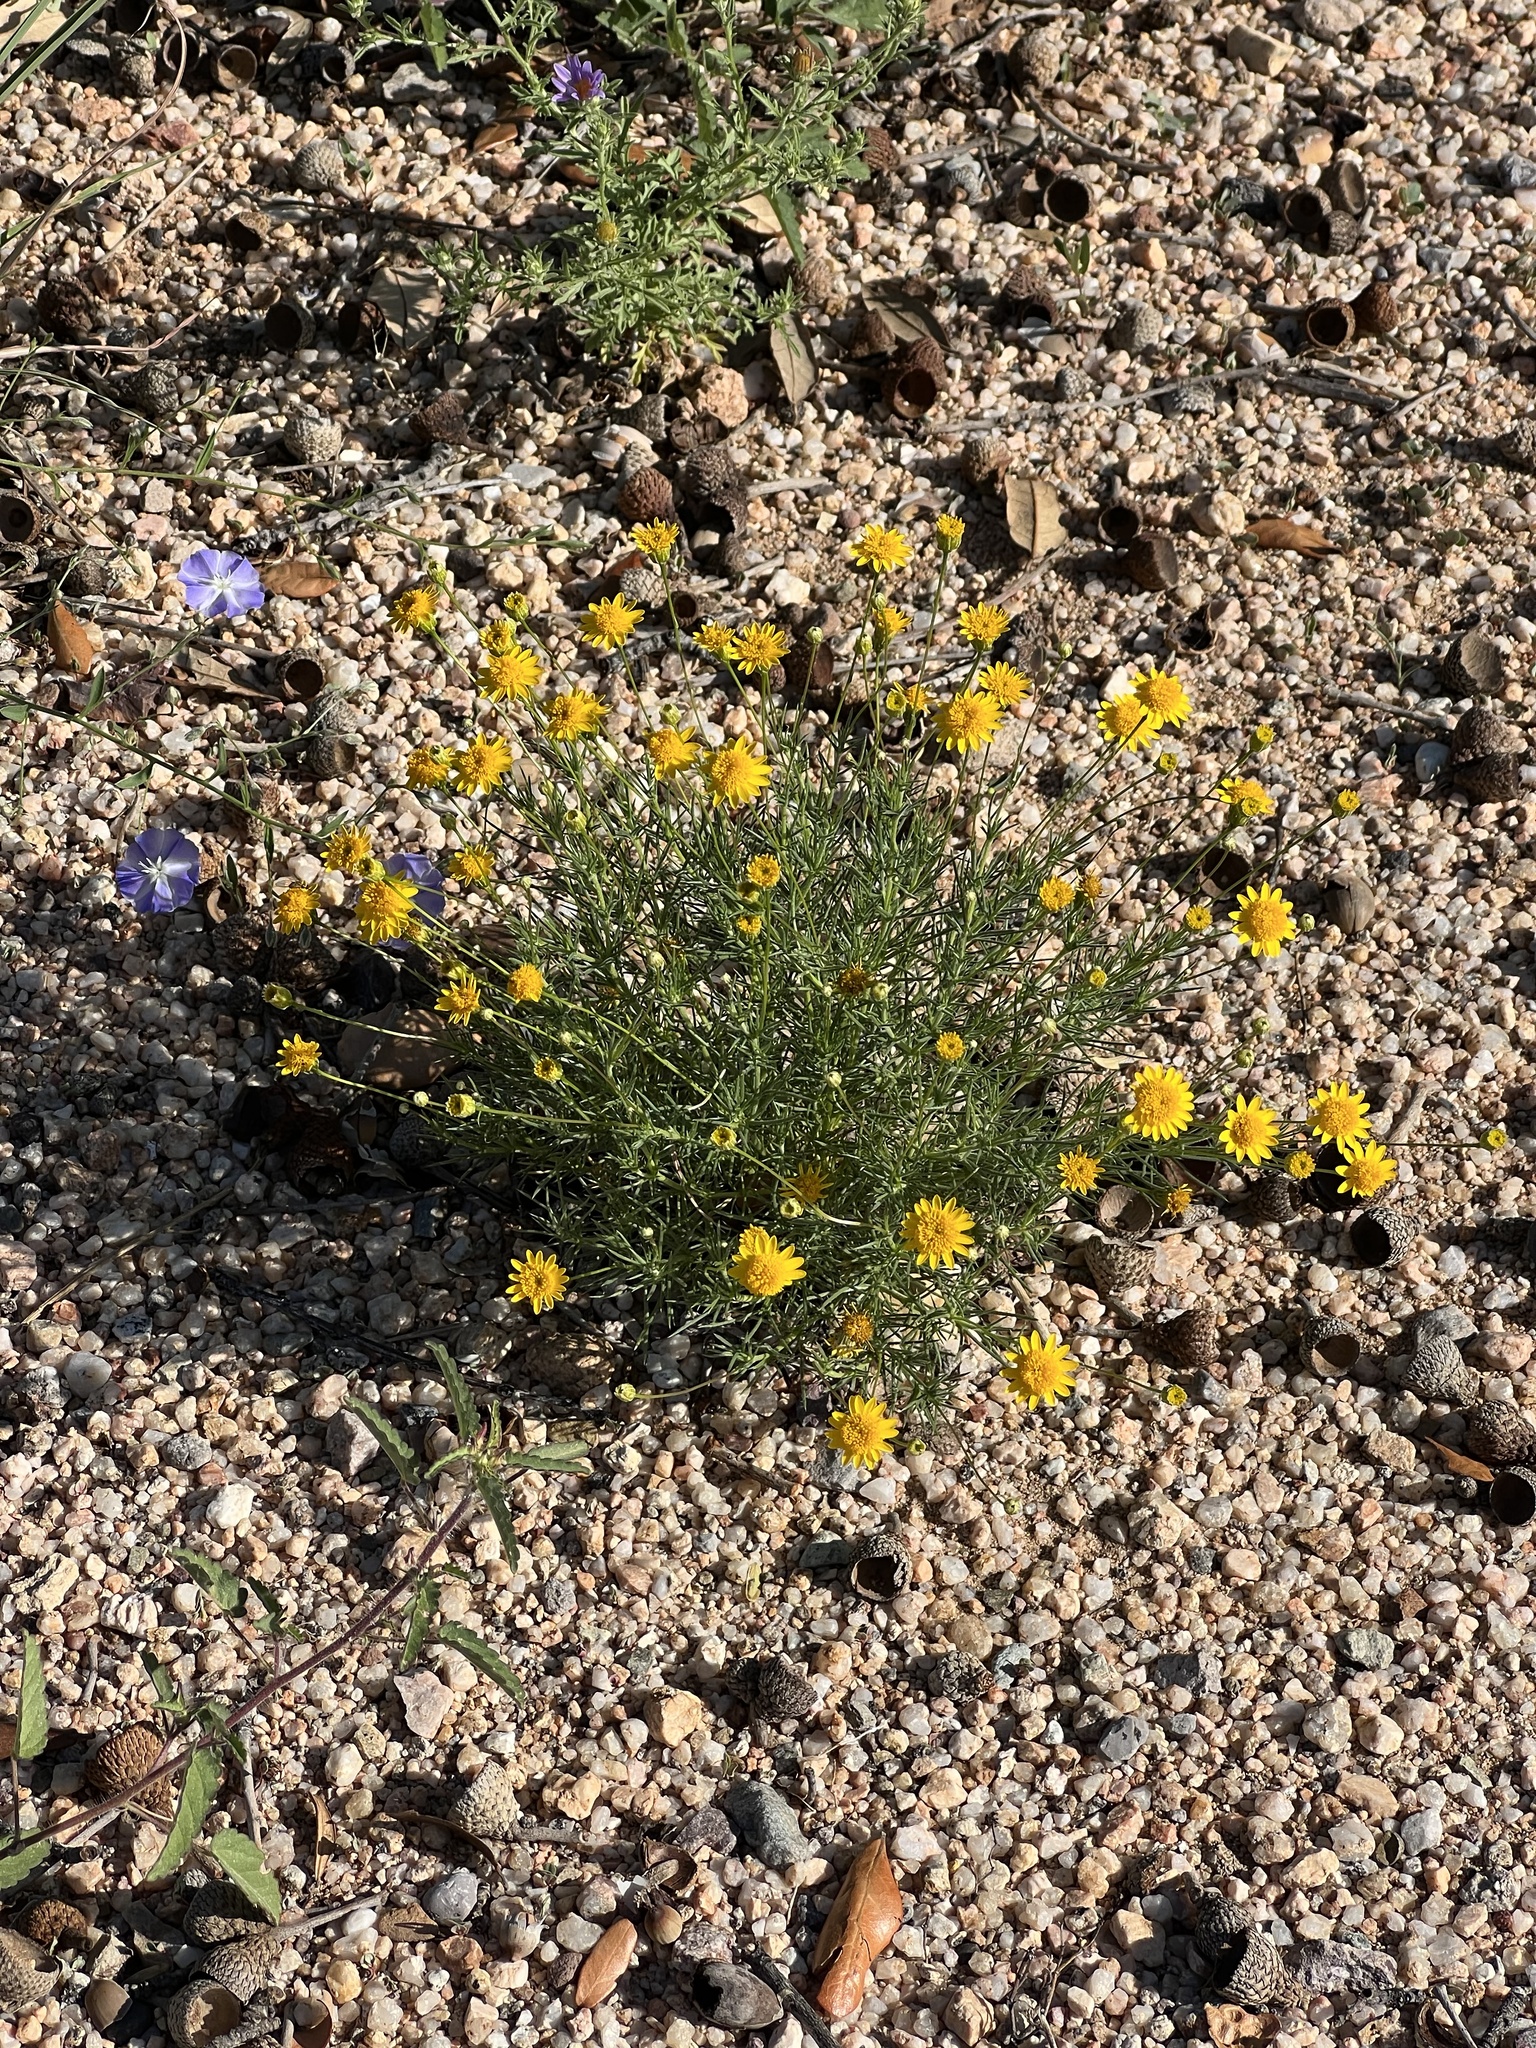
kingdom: Plantae
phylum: Tracheophyta
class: Magnoliopsida
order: Asterales
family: Asteraceae
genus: Thymophylla
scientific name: Thymophylla pentachaeta
